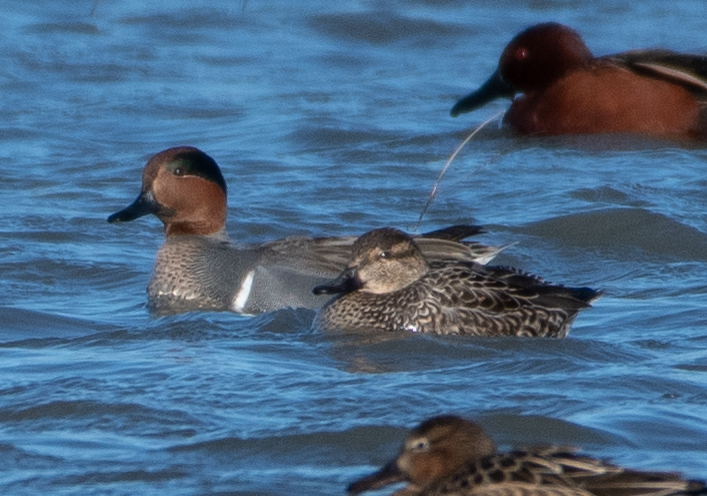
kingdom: Animalia
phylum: Chordata
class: Aves
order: Anseriformes
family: Anatidae
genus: Anas
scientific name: Anas crecca
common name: Eurasian teal
